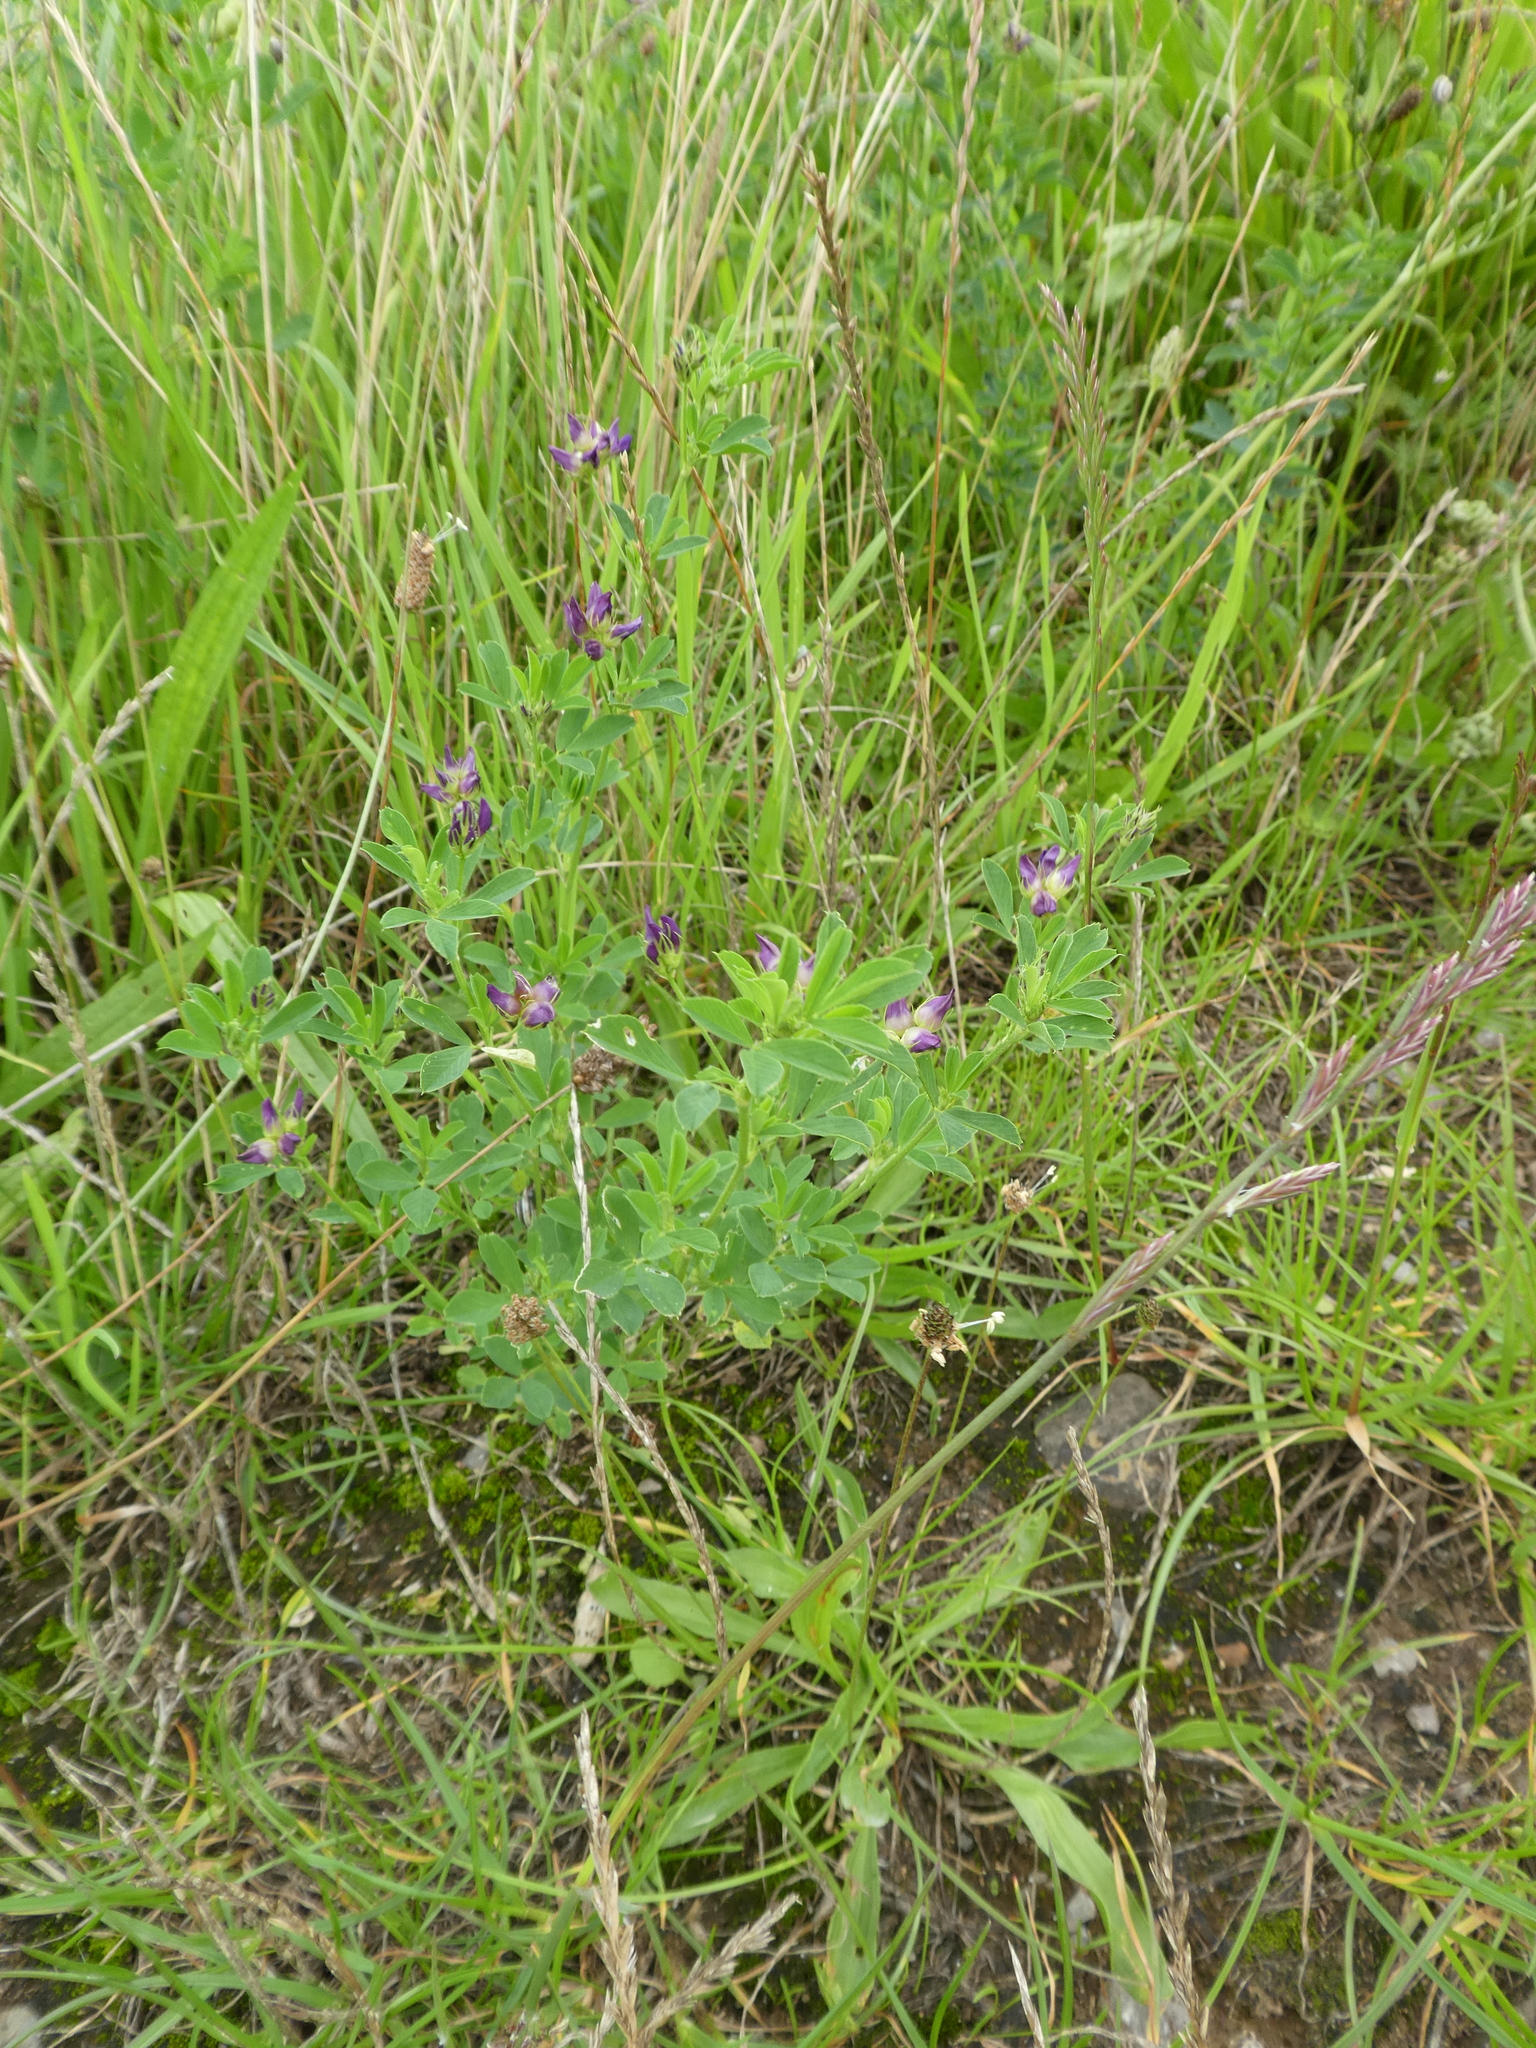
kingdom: Plantae
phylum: Tracheophyta
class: Magnoliopsida
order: Fabales
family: Fabaceae
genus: Medicago
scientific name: Medicago sativa
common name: Alfalfa
